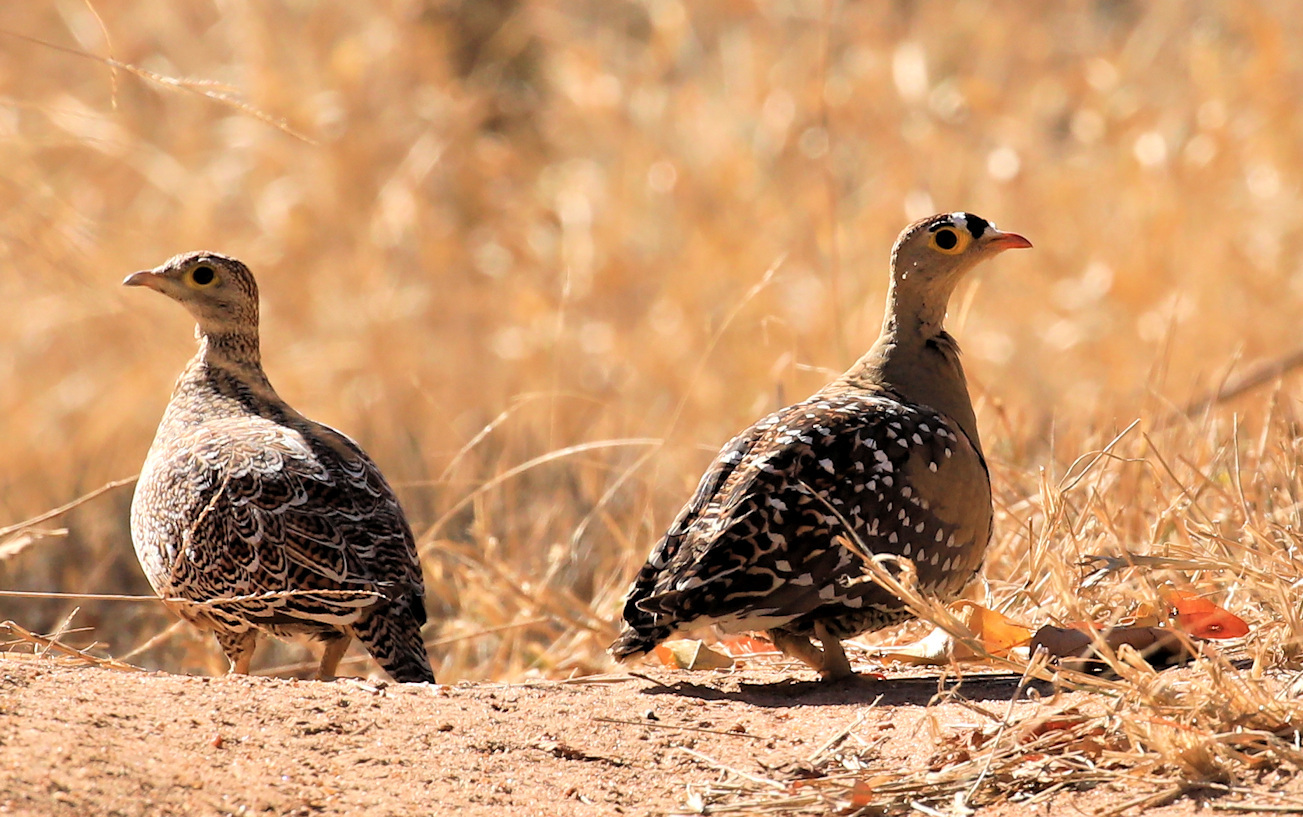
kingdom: Animalia
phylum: Chordata
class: Aves
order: Pteroclidiformes
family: Pteroclididae
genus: Pterocles
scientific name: Pterocles bicinctus
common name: Double-banded sandgrouse
